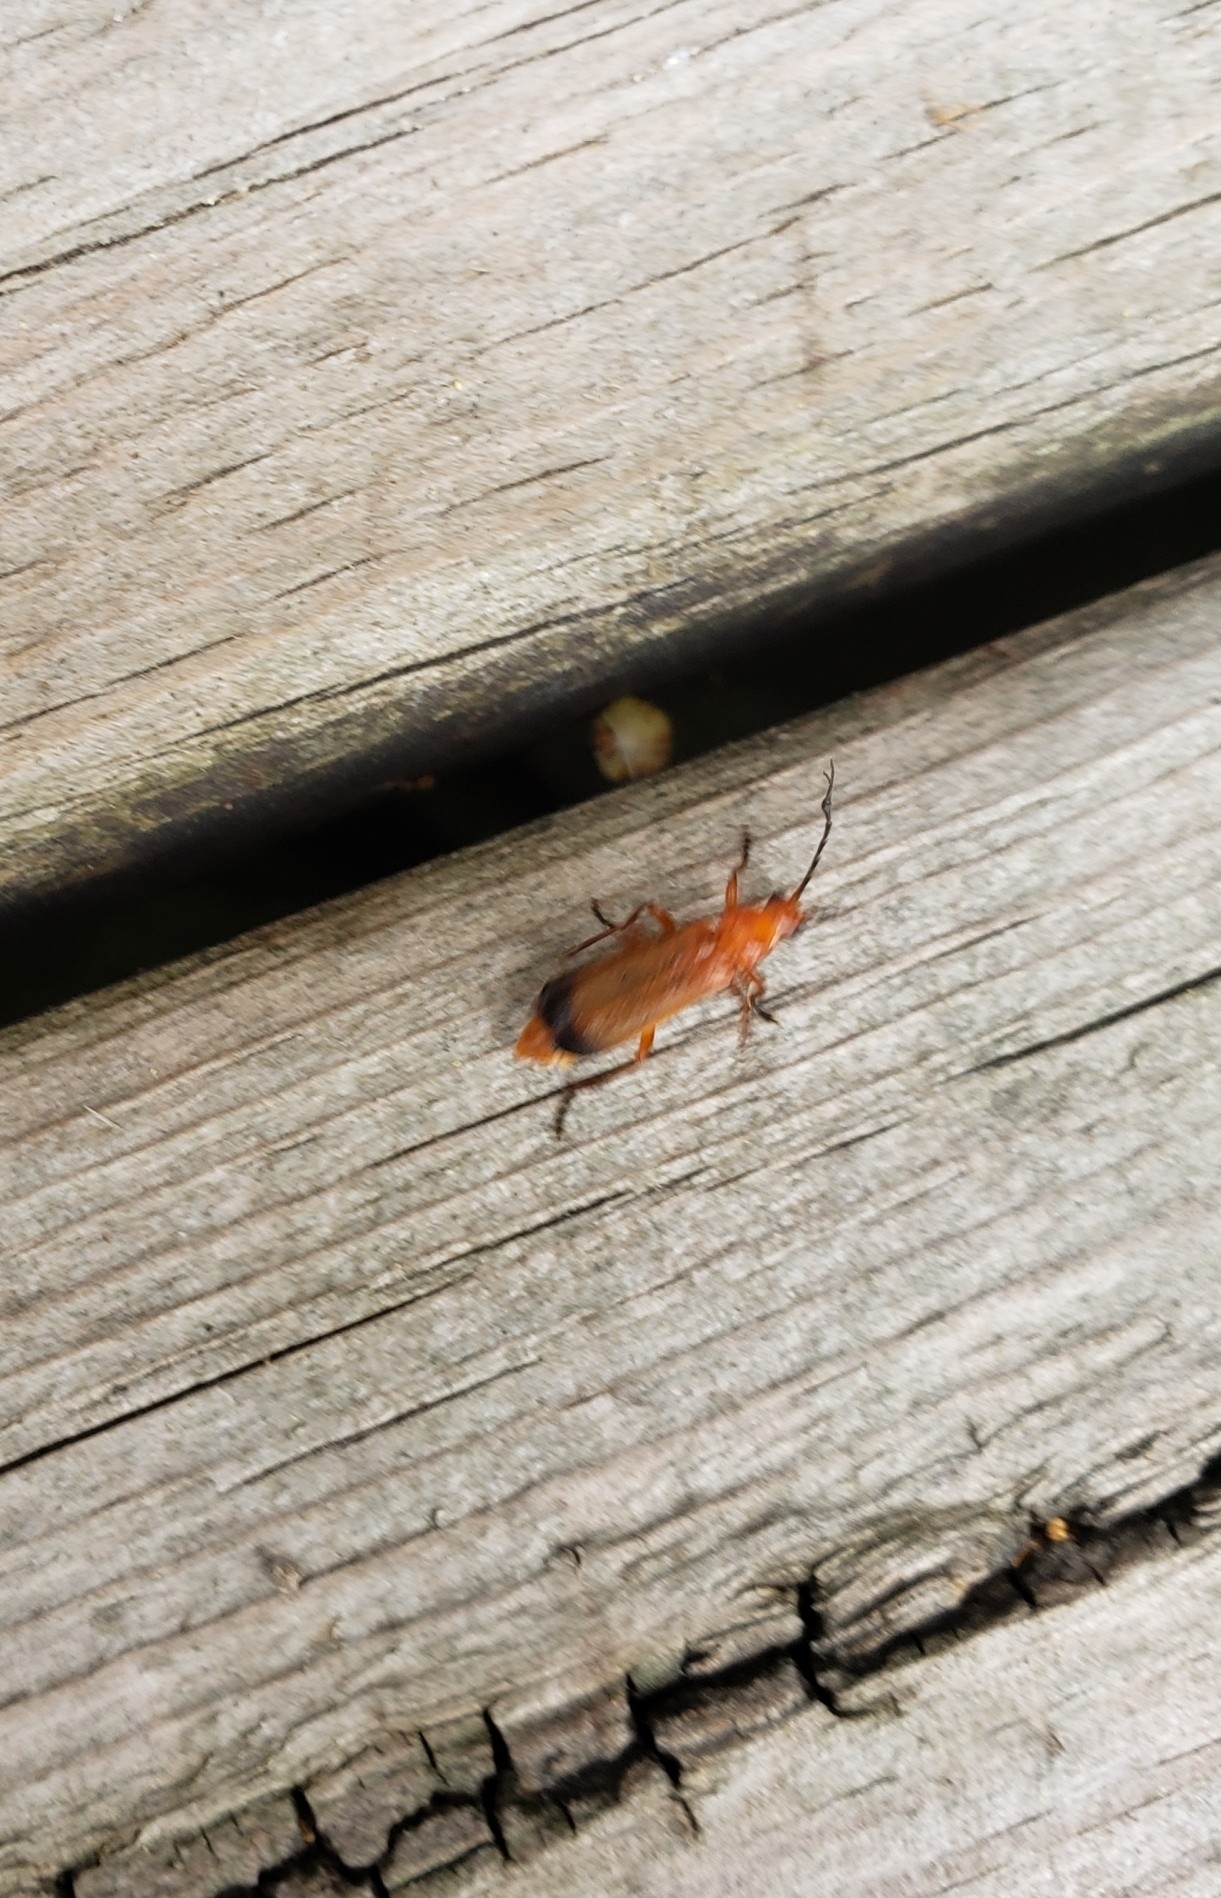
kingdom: Animalia
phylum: Arthropoda
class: Insecta
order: Coleoptera
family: Cantharidae
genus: Rhagonycha
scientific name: Rhagonycha fulva
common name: Common red soldier beetle
